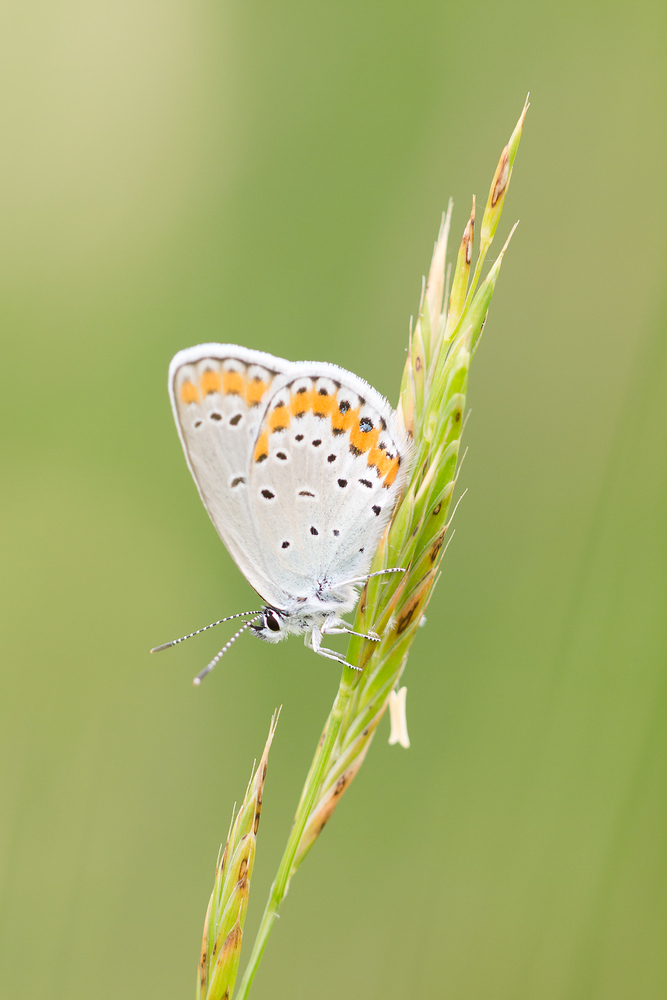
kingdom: Animalia
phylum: Arthropoda
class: Insecta
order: Lepidoptera
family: Lycaenidae
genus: Plebejus
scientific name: Plebejus argyrognomon
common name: Reverdin's blue
